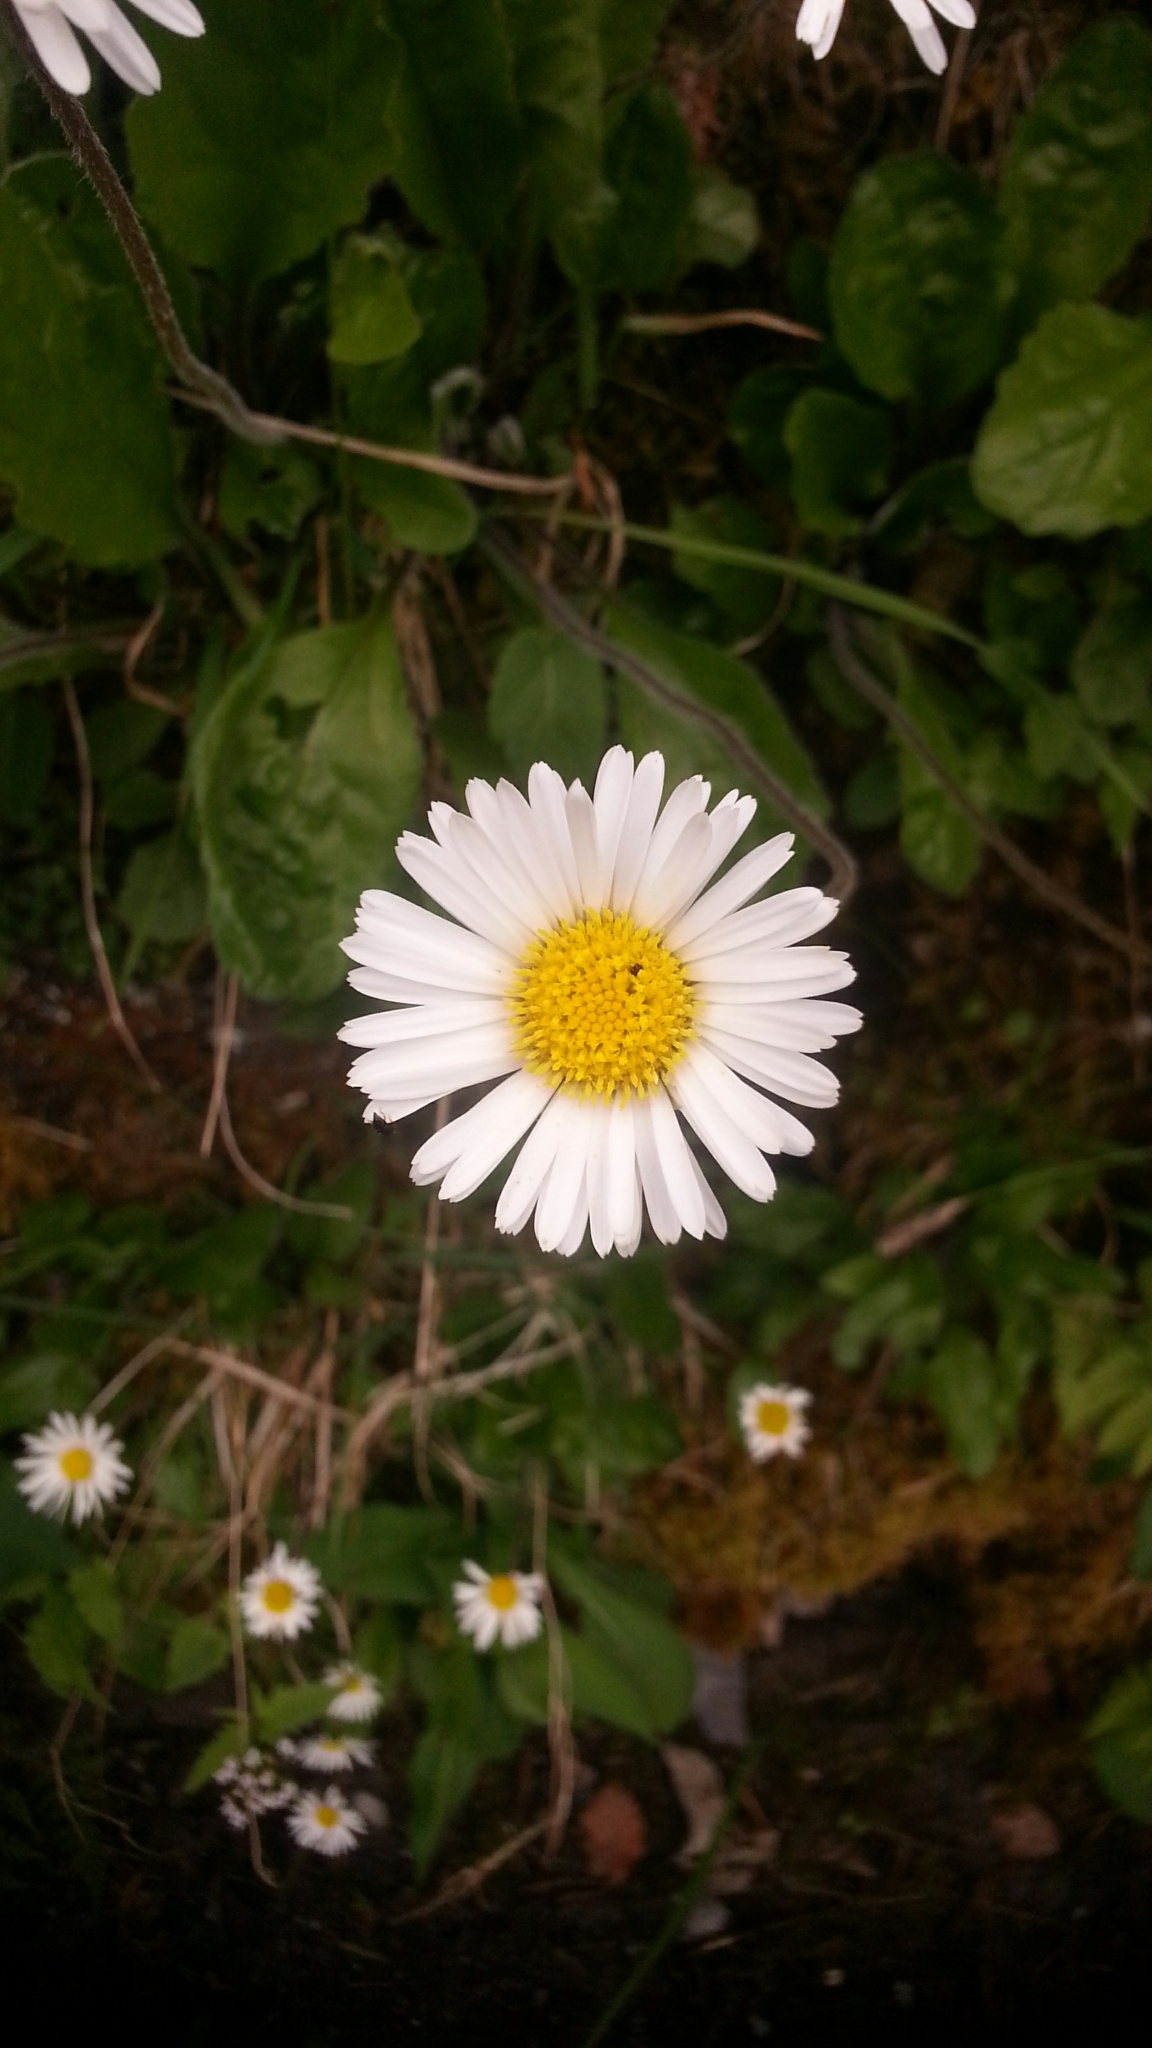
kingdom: Plantae
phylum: Tracheophyta
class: Magnoliopsida
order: Asterales
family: Asteraceae
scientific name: Asteraceae
